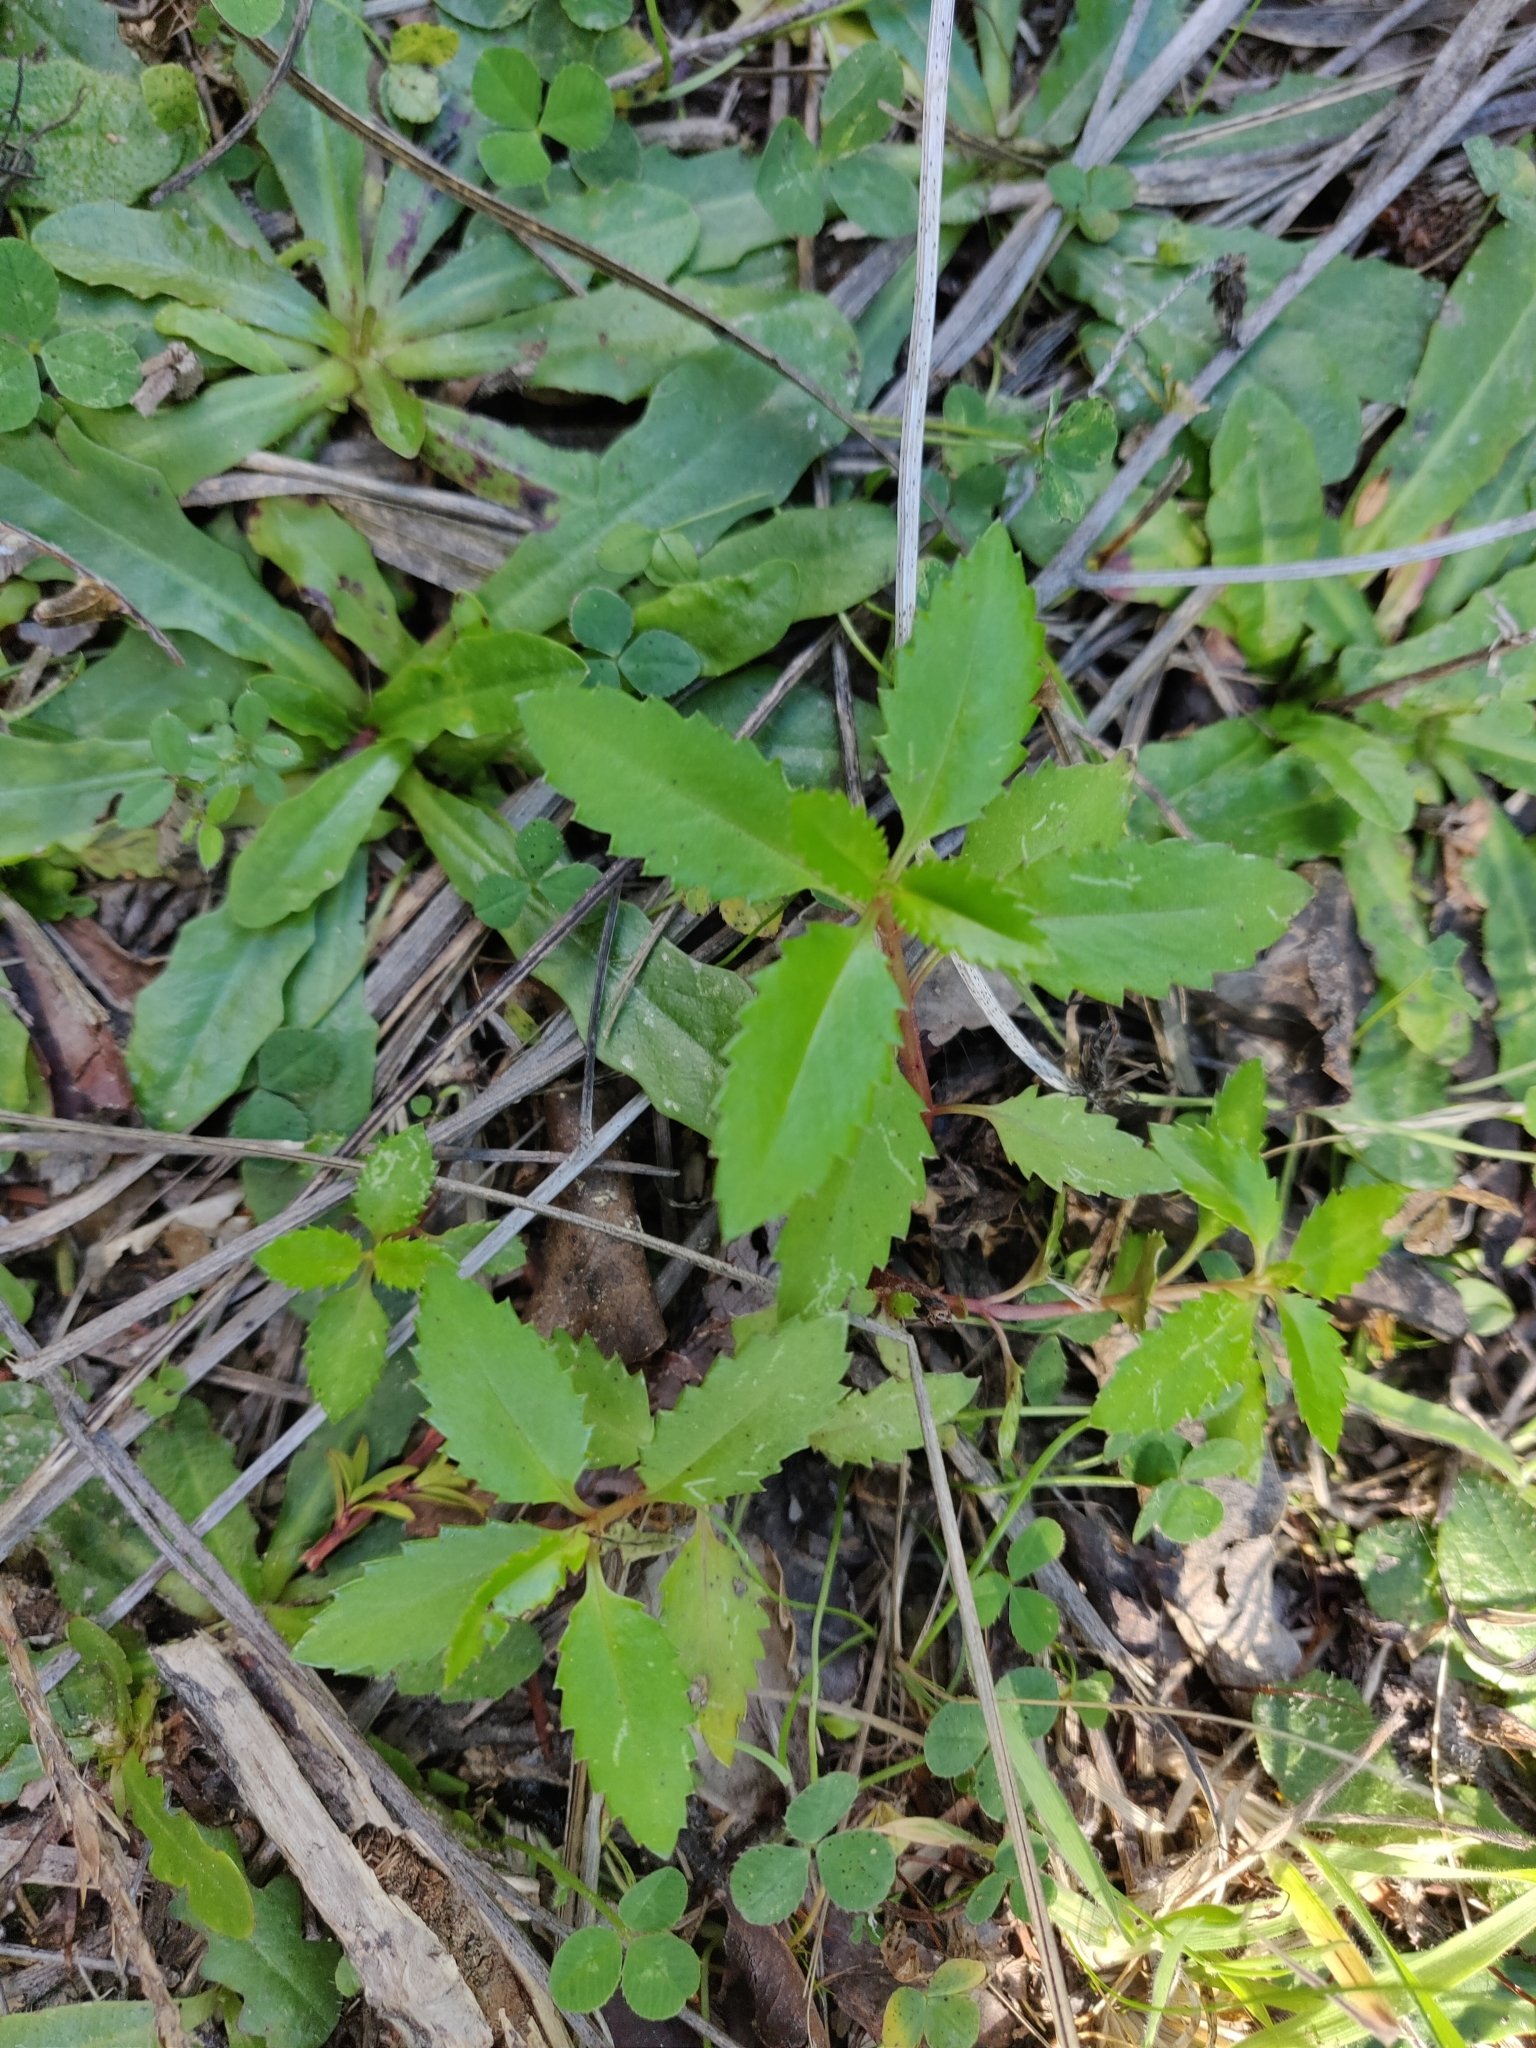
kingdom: Plantae
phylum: Tracheophyta
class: Magnoliopsida
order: Saxifragales
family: Haloragaceae
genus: Haloragis
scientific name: Haloragis erecta
